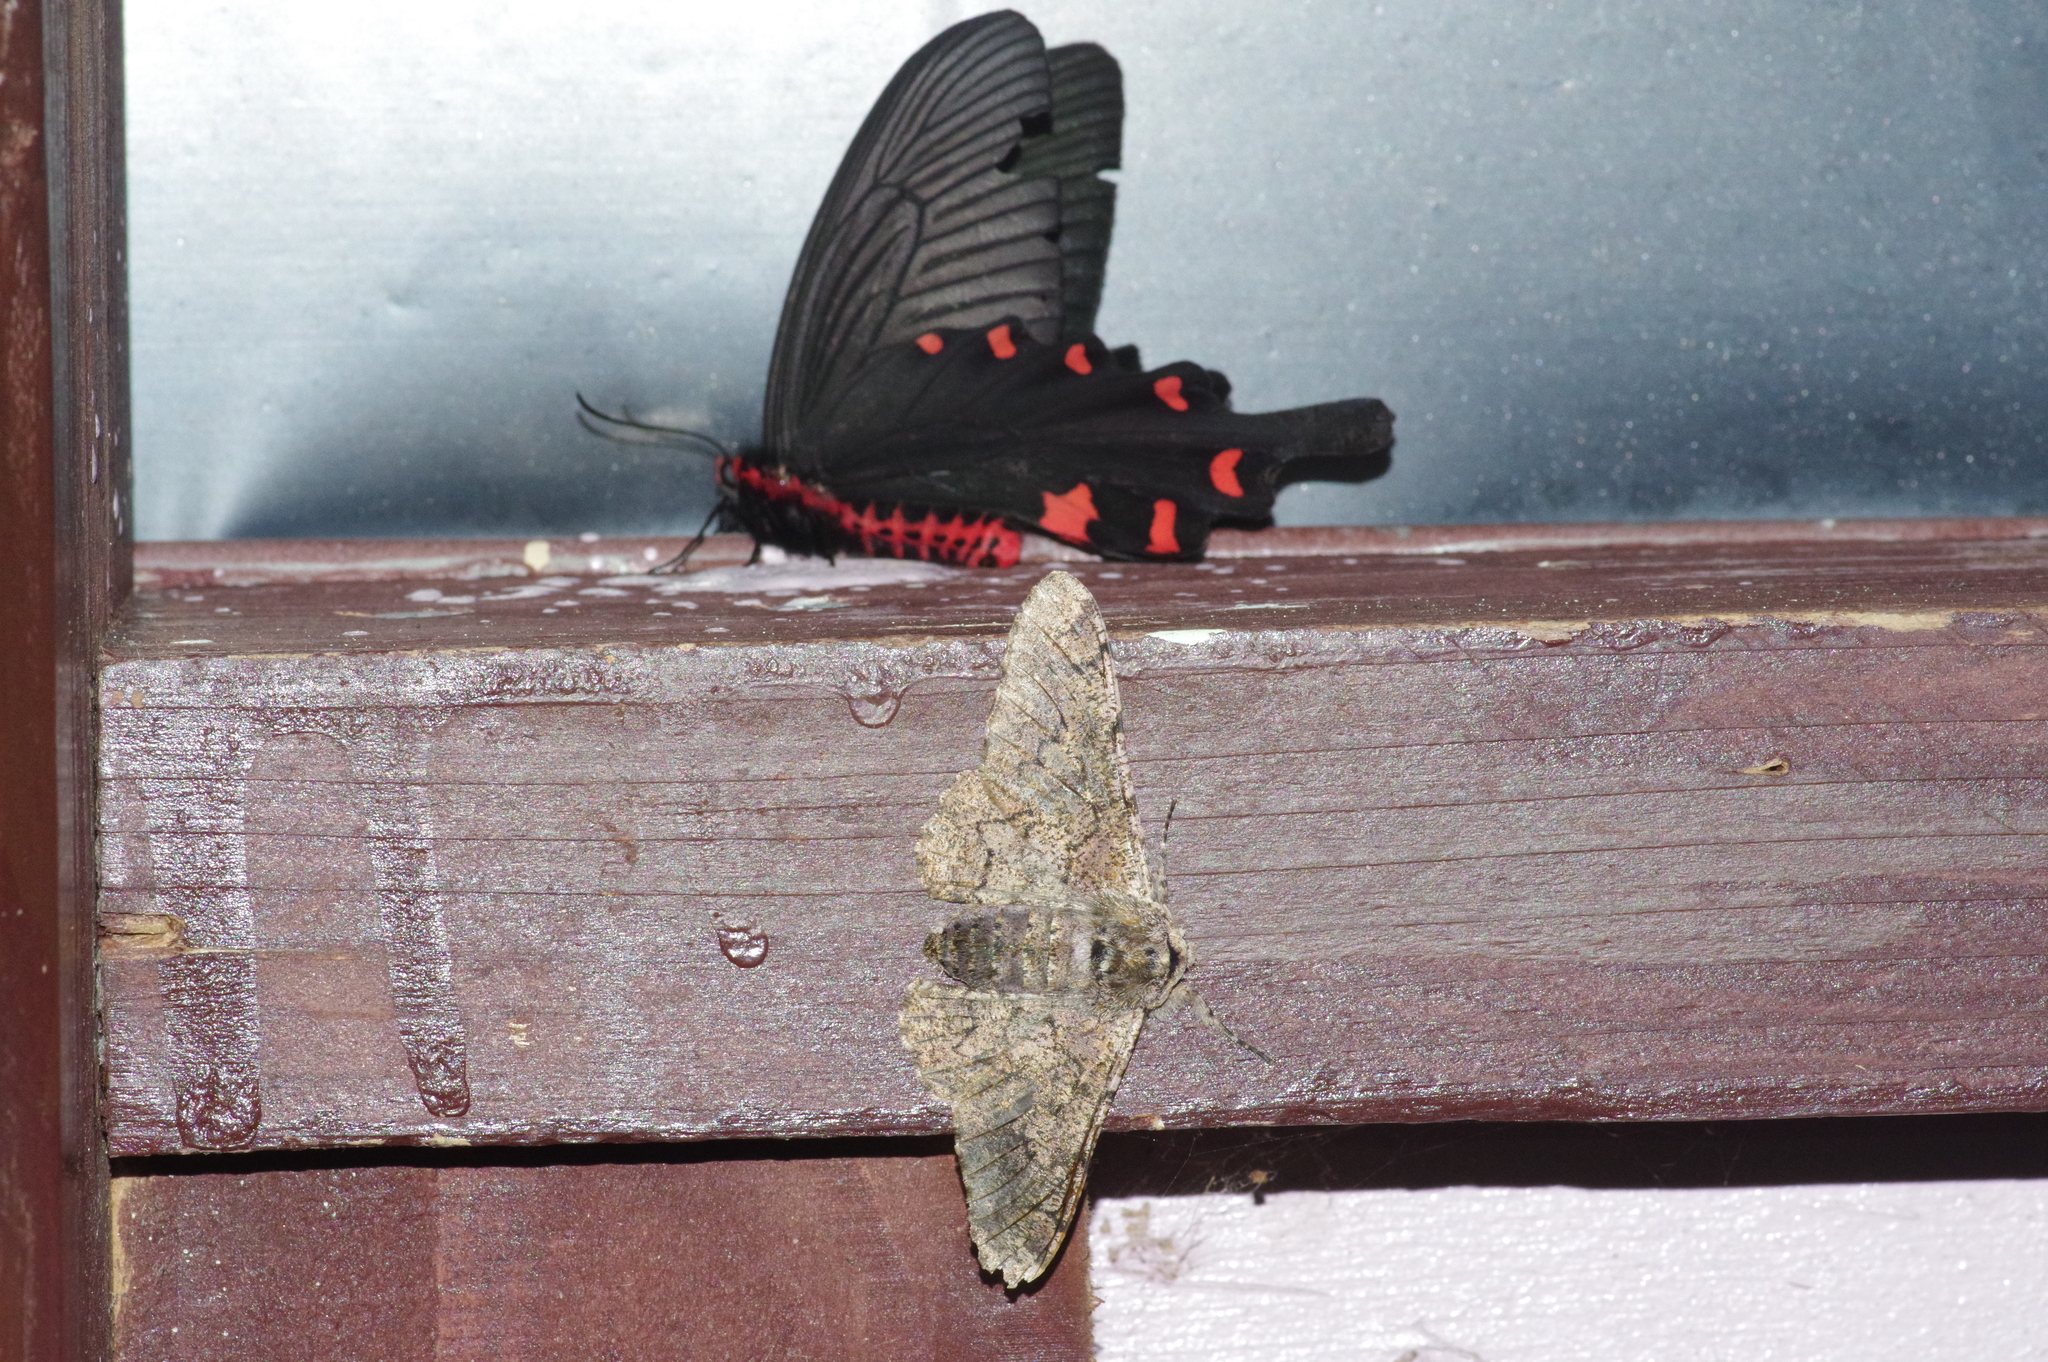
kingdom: Animalia
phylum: Arthropoda
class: Insecta
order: Lepidoptera
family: Geometridae
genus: Biston
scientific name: Biston robustum
